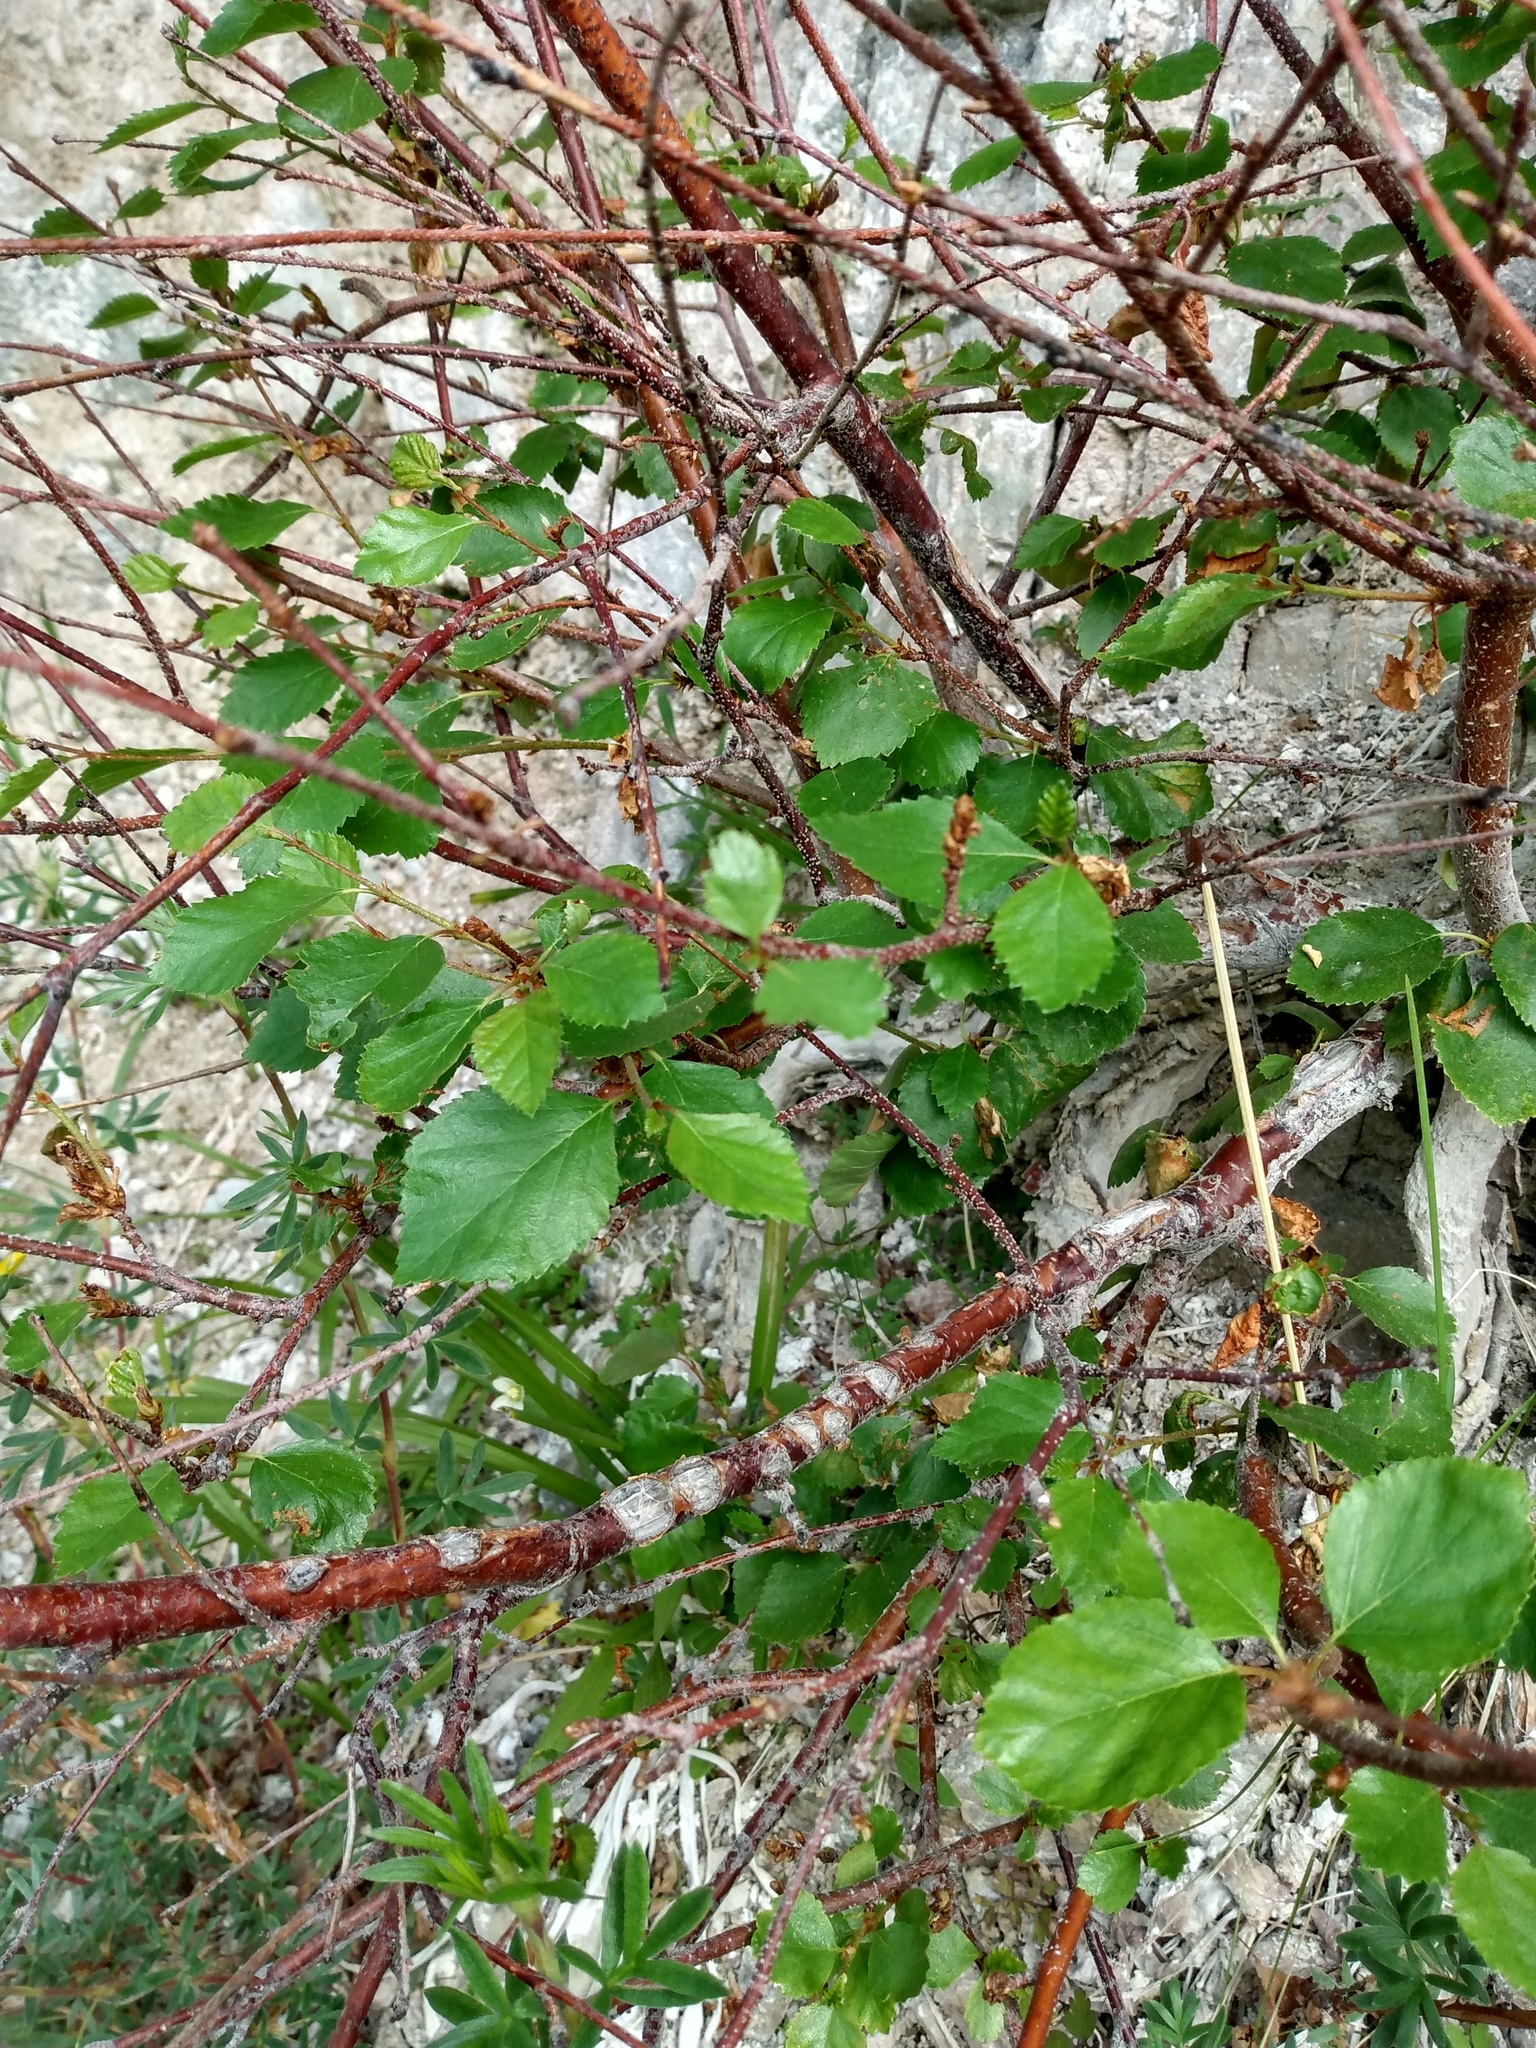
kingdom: Plantae
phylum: Tracheophyta
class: Magnoliopsida
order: Fagales
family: Betulaceae
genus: Betula
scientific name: Betula occidentalis
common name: River birch
